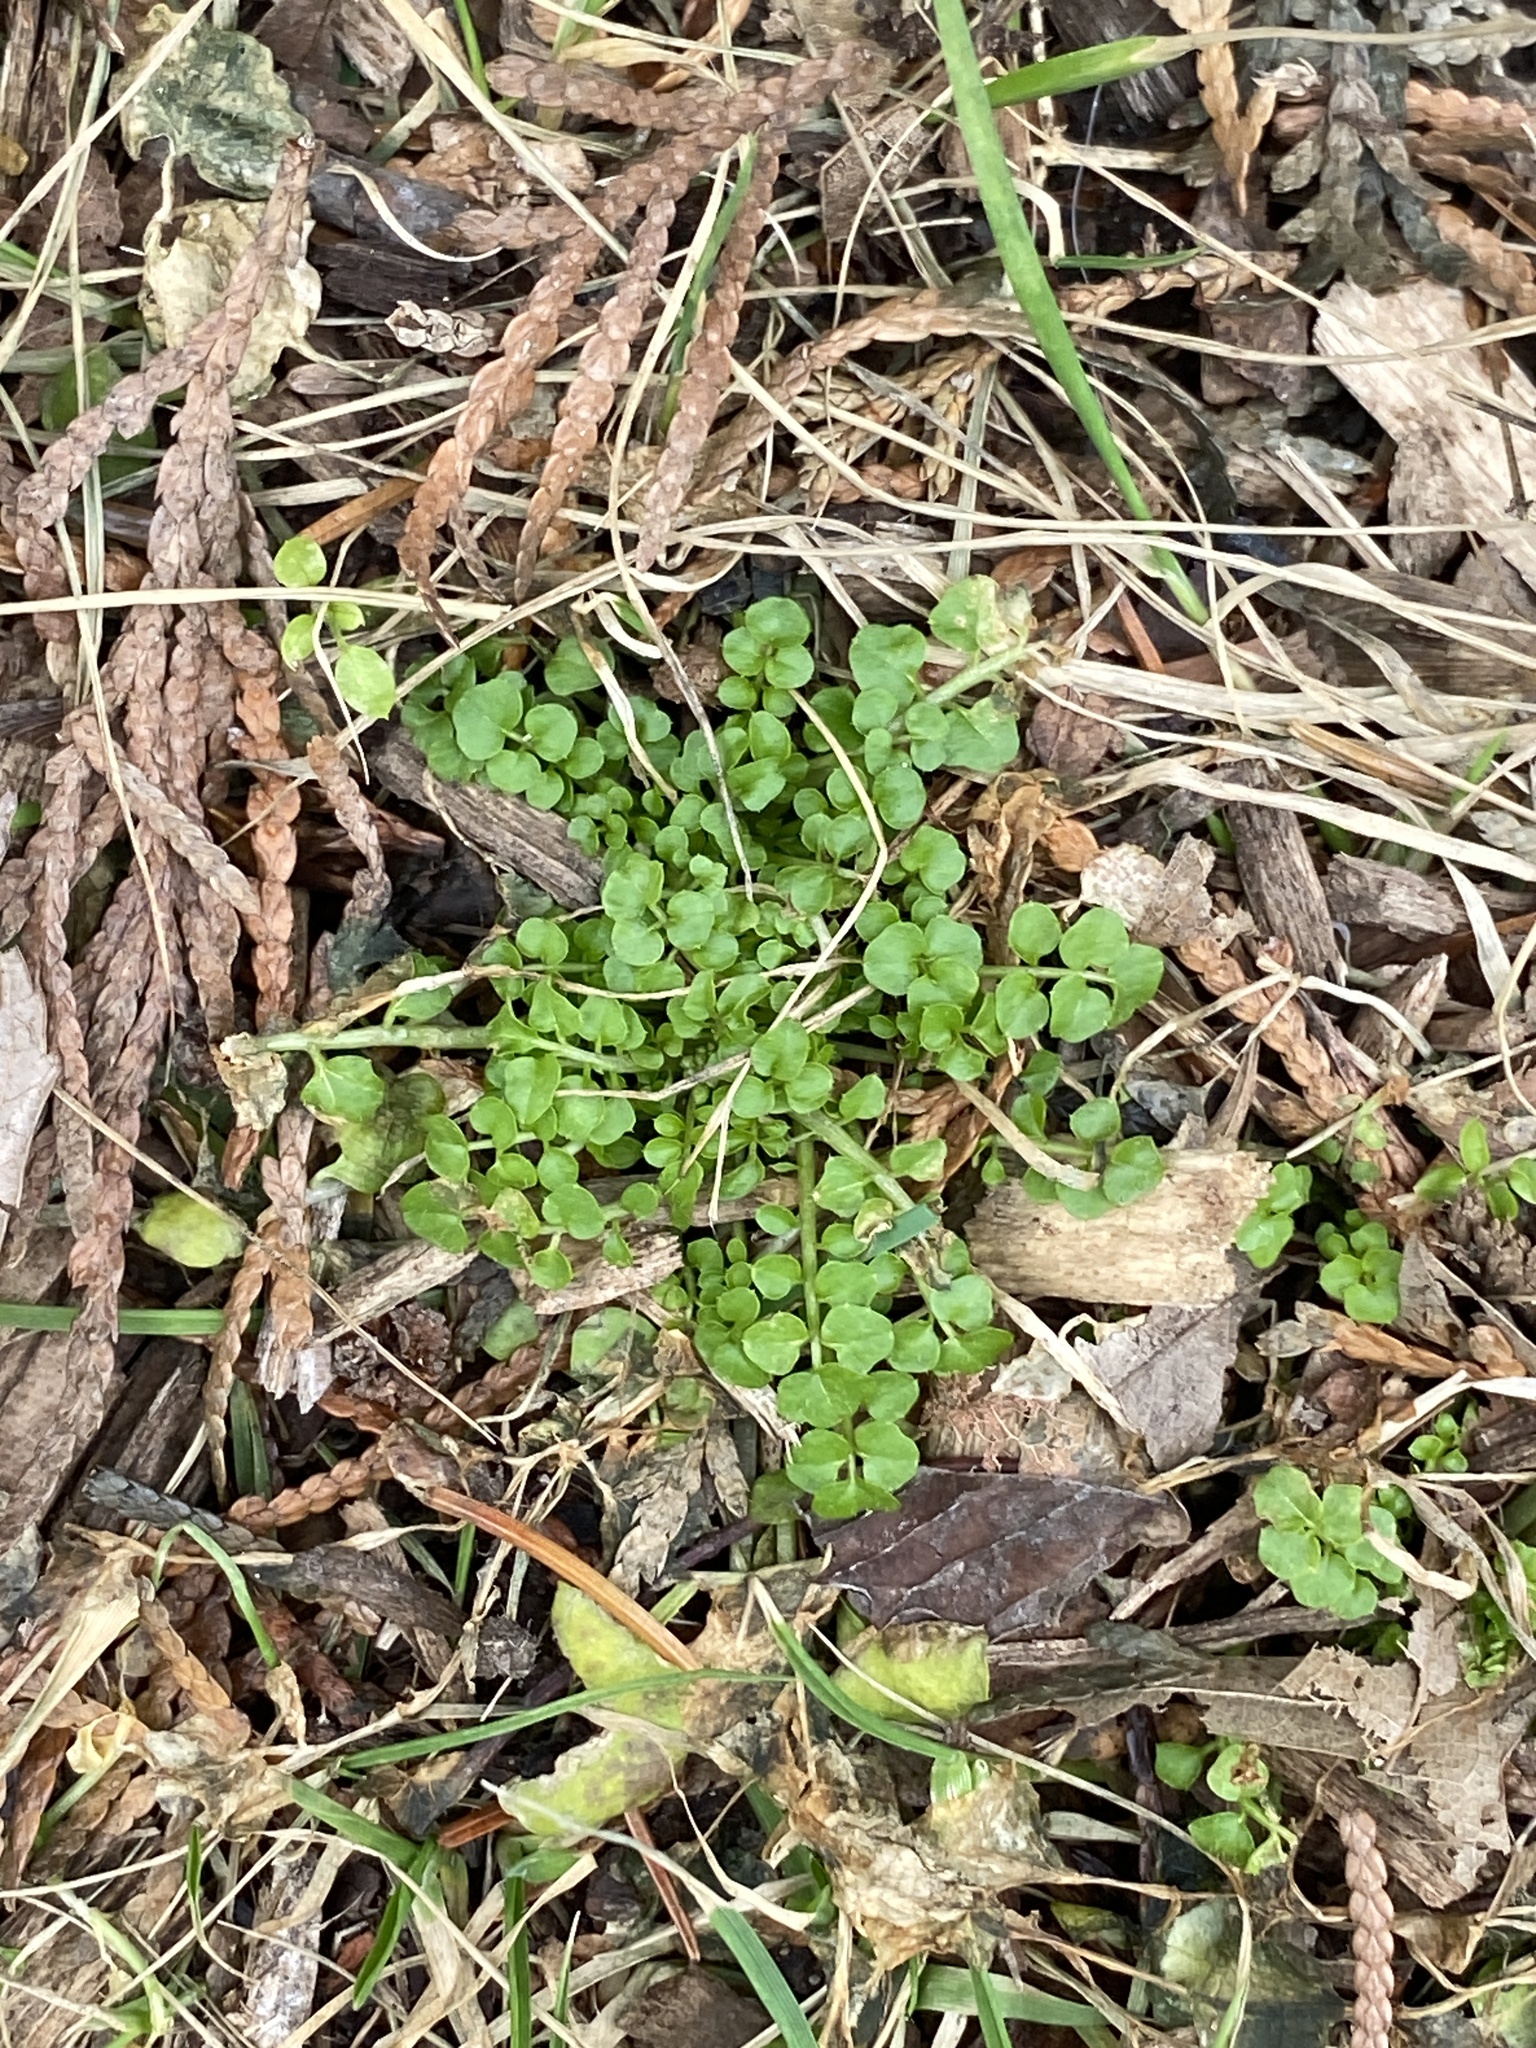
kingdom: Plantae
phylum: Tracheophyta
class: Magnoliopsida
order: Brassicales
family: Brassicaceae
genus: Cardamine
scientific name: Cardamine hirsuta
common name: Hairy bittercress
